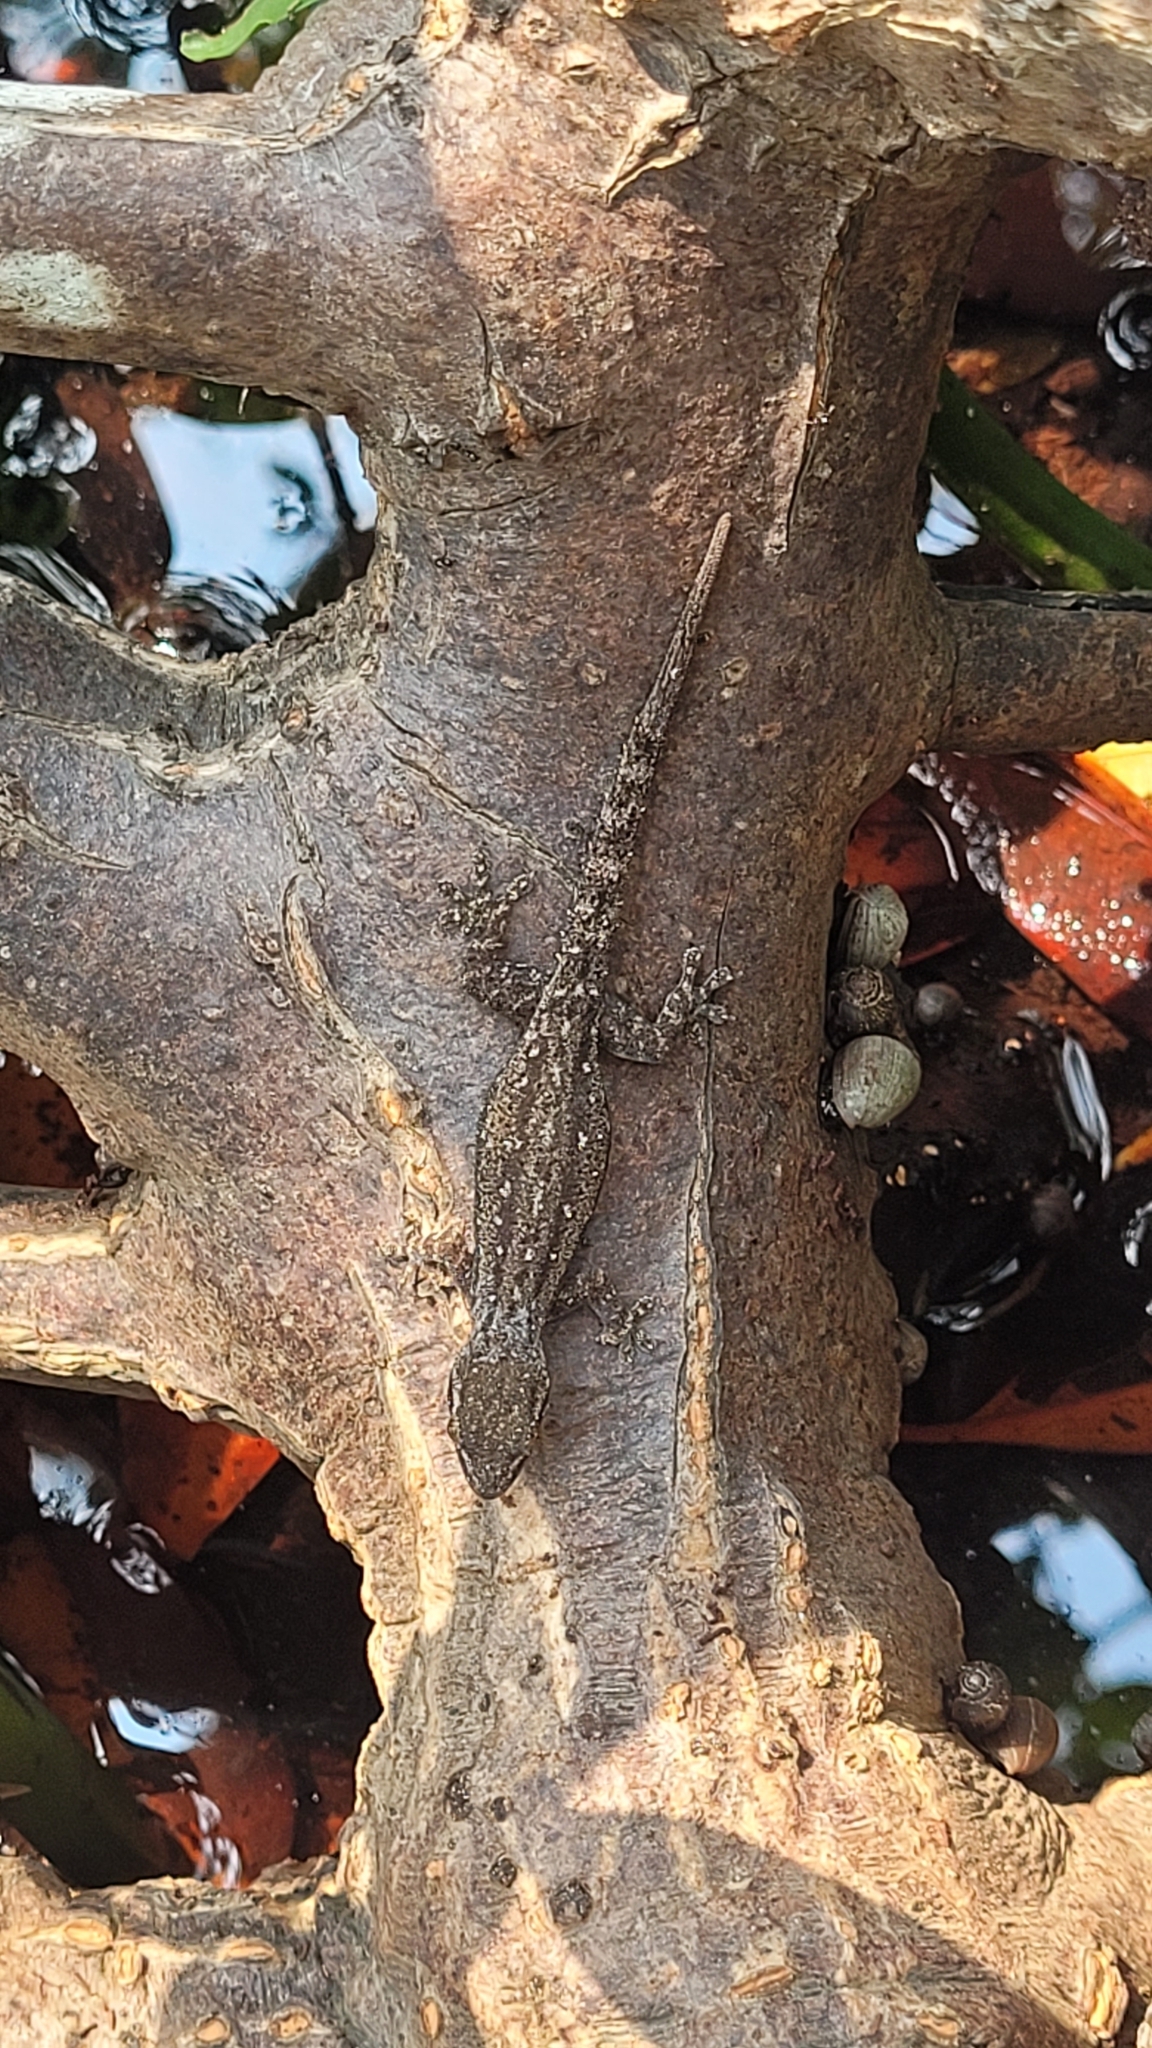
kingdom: Animalia
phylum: Chordata
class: Squamata
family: Gekkonidae
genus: Hemidactylus
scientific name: Hemidactylus frenatus
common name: Common house gecko
